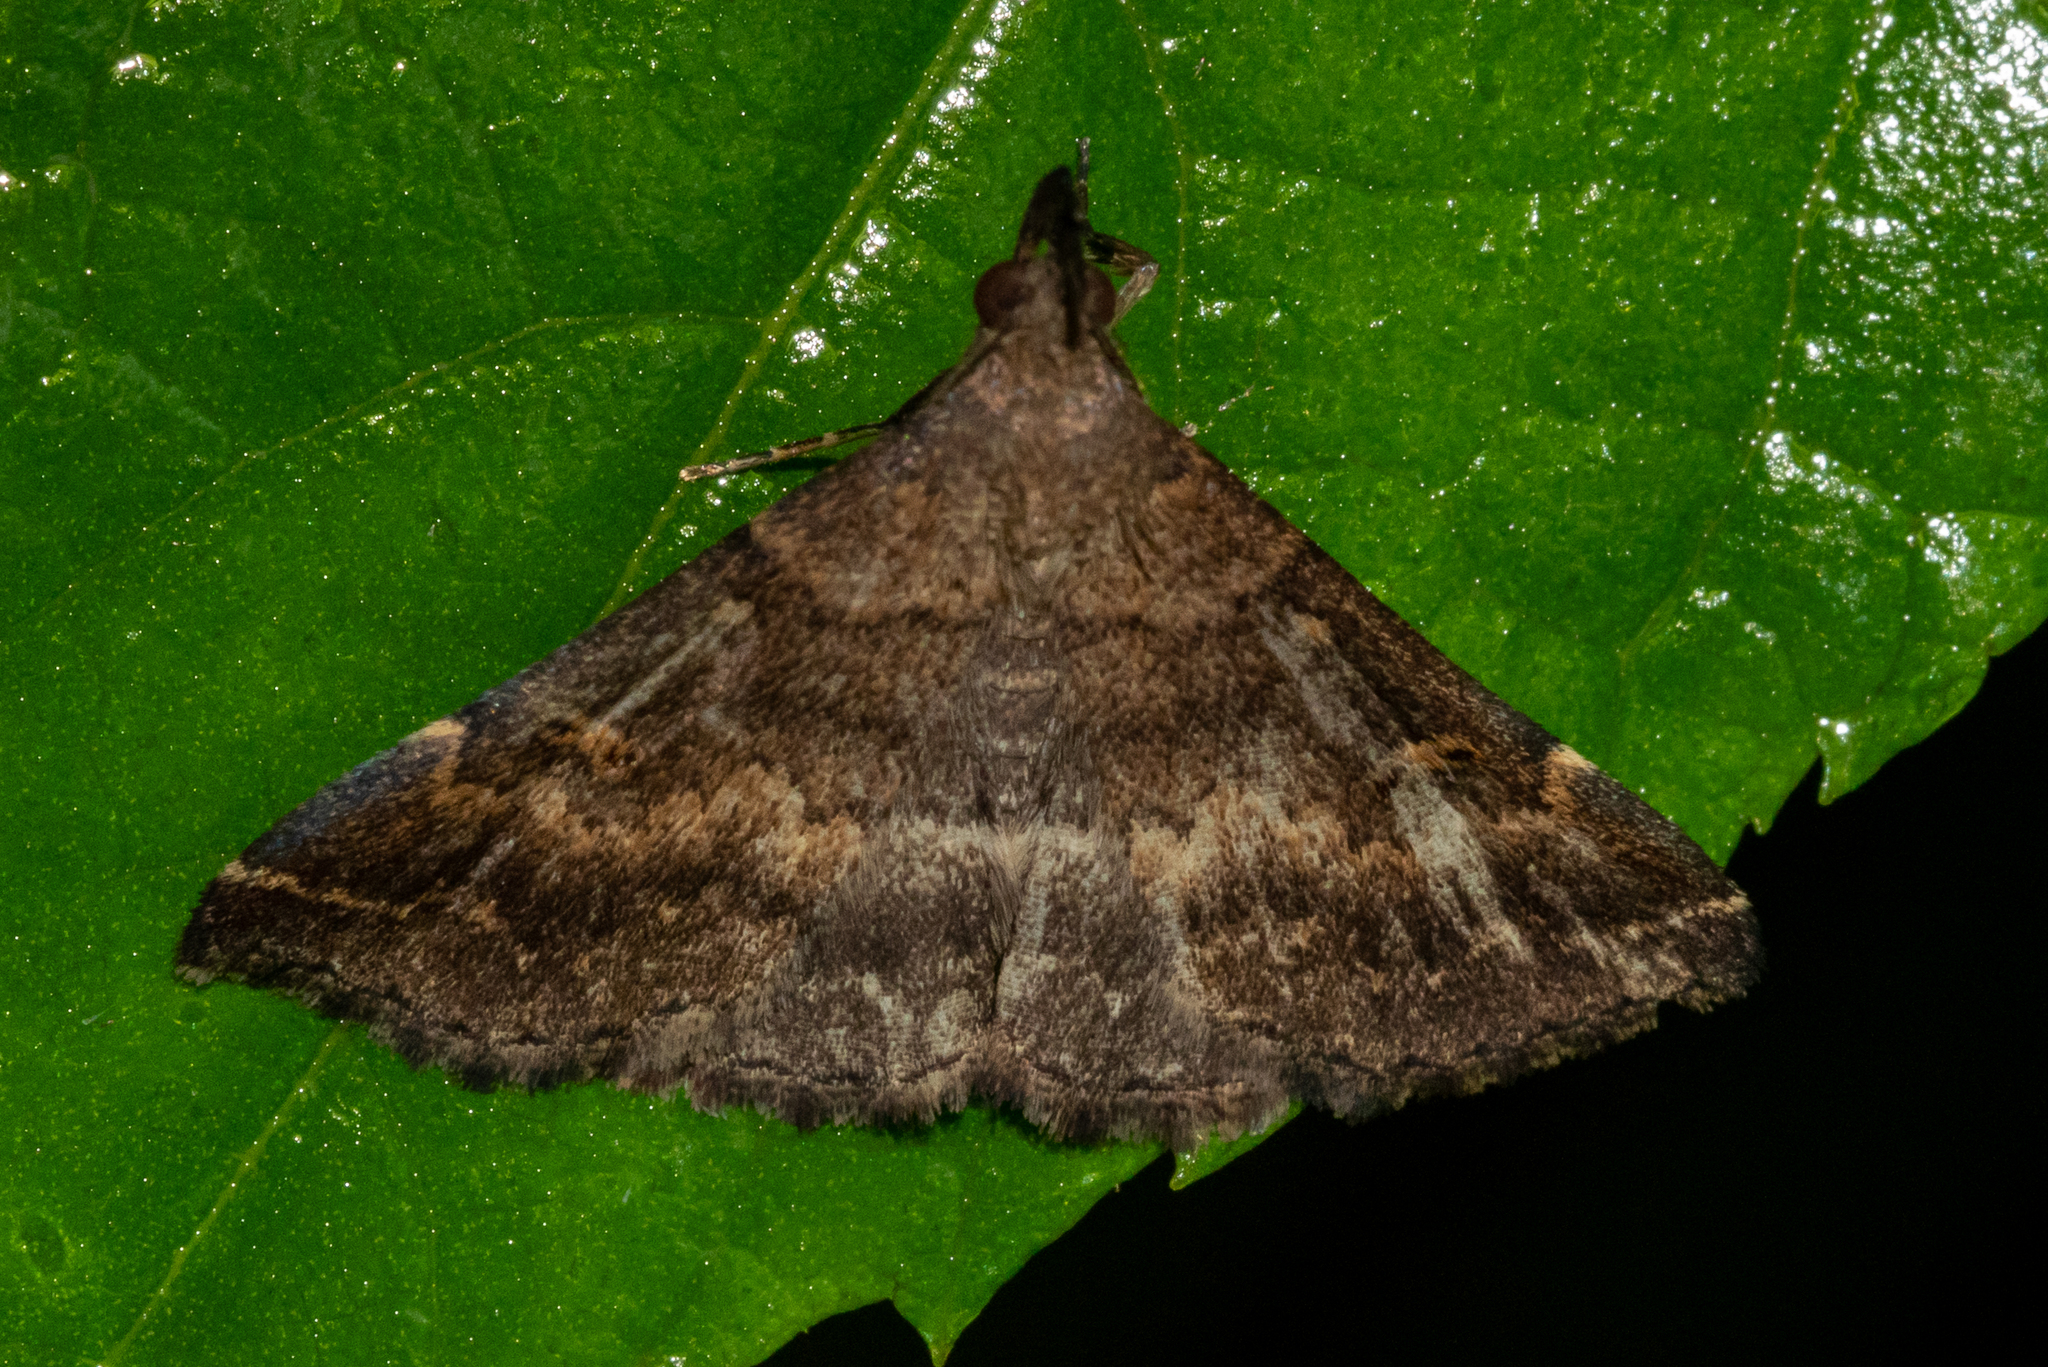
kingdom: Animalia
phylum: Arthropoda
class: Insecta
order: Lepidoptera
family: Erebidae
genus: Renia
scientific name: Renia discoloralis
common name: Discolored renia moth
